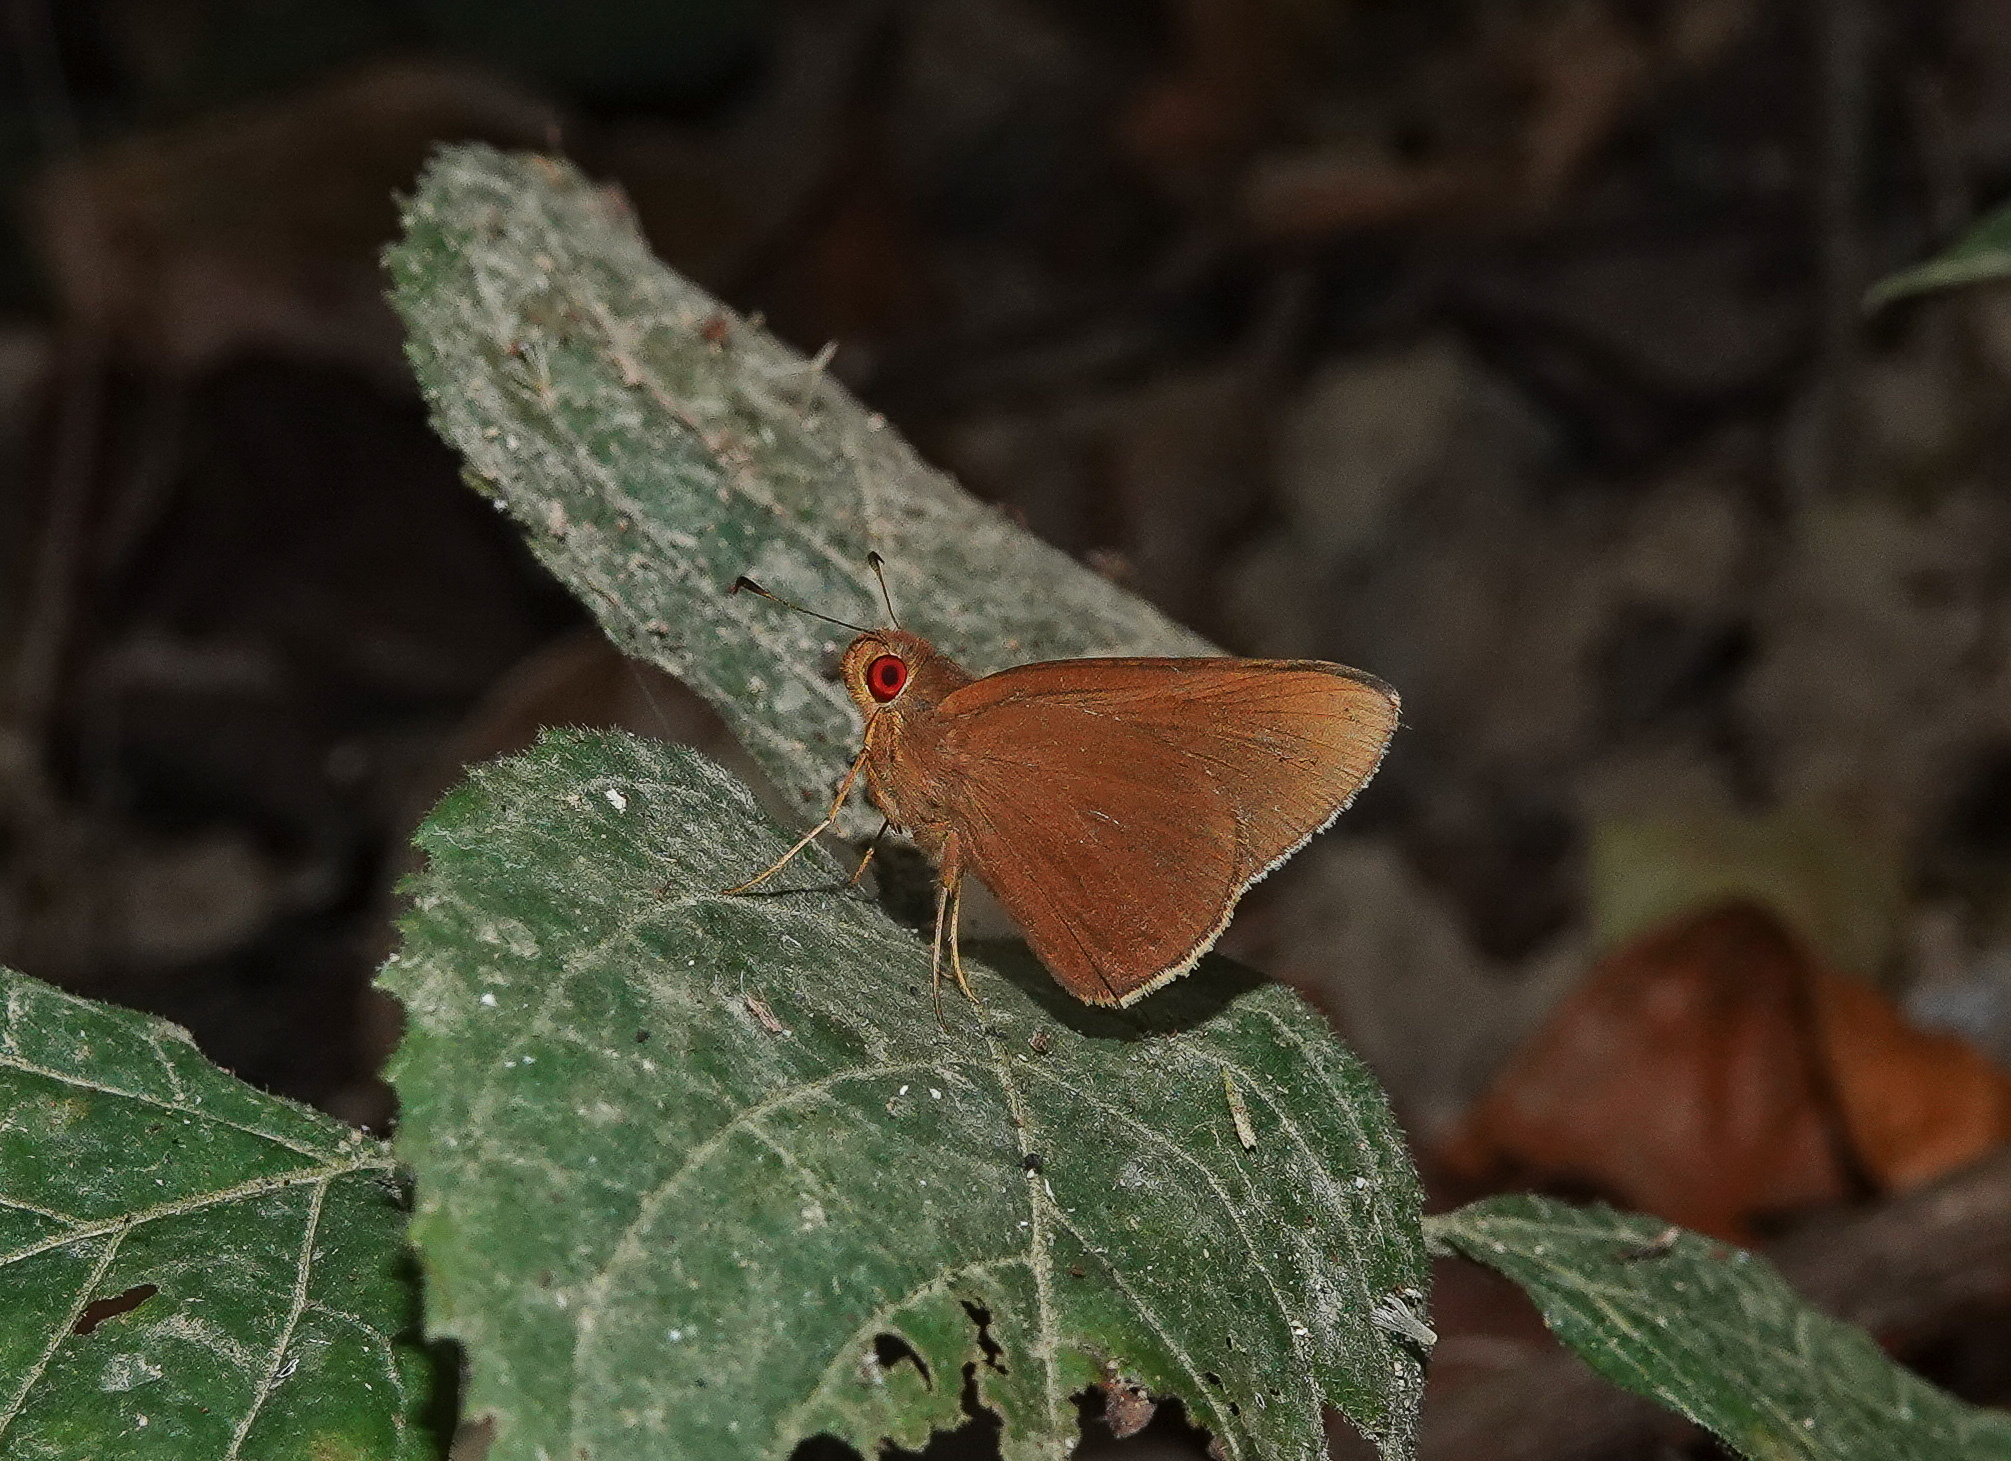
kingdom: Animalia
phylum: Arthropoda
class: Insecta
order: Lepidoptera
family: Hesperiidae
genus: Matapa
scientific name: Matapa aria
